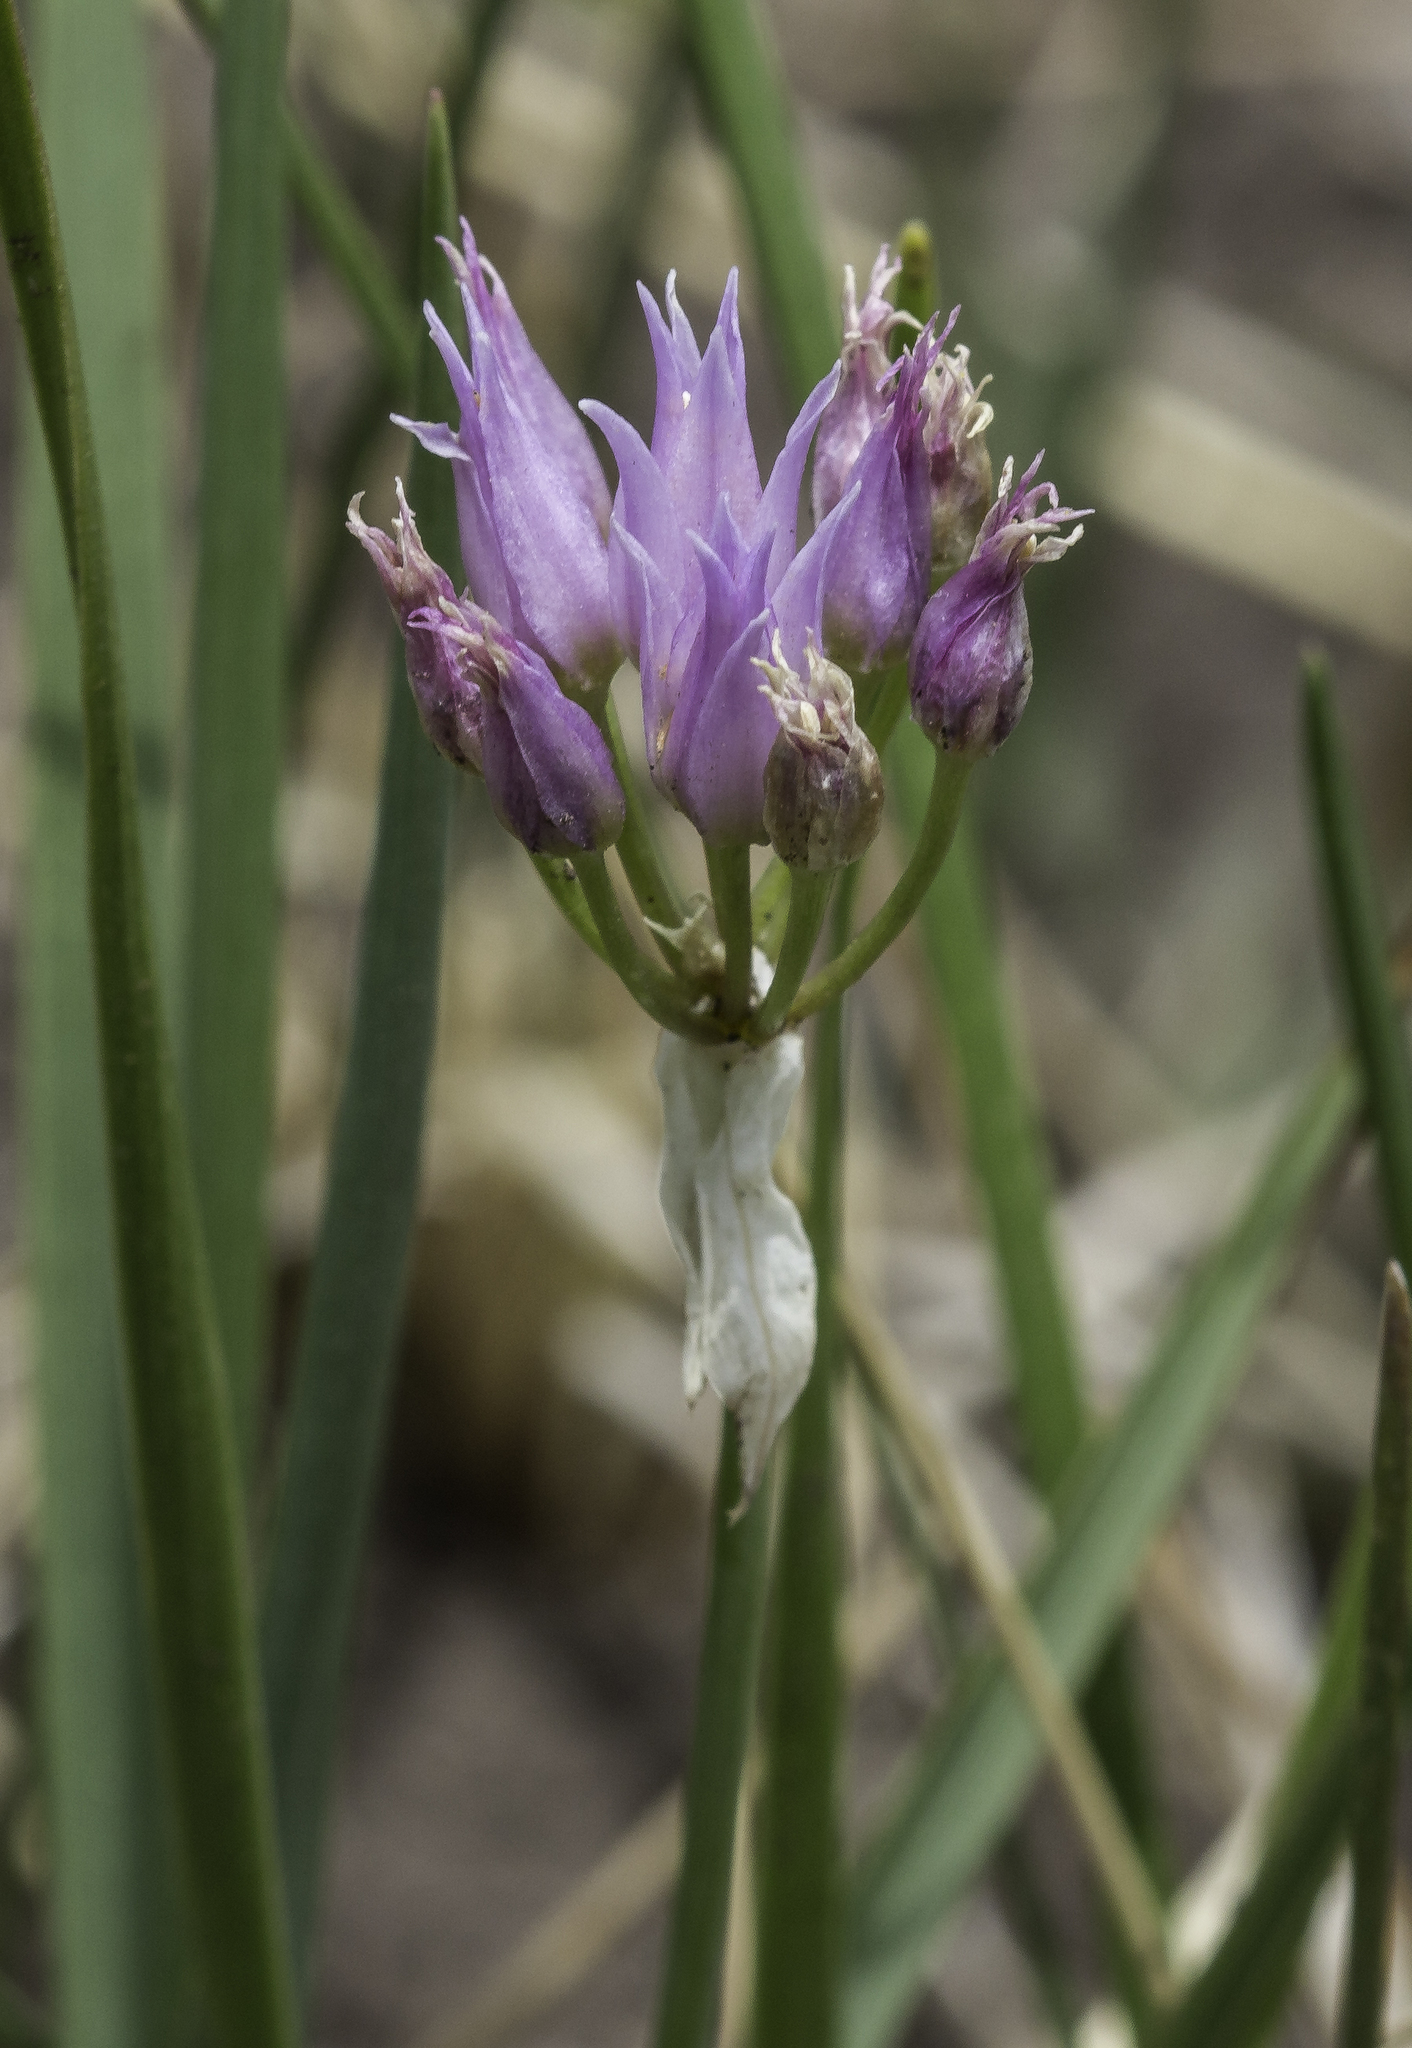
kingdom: Plantae
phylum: Tracheophyta
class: Liliopsida
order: Asparagales
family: Amaryllidaceae
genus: Allium
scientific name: Allium geyeri
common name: Geyer's onion
